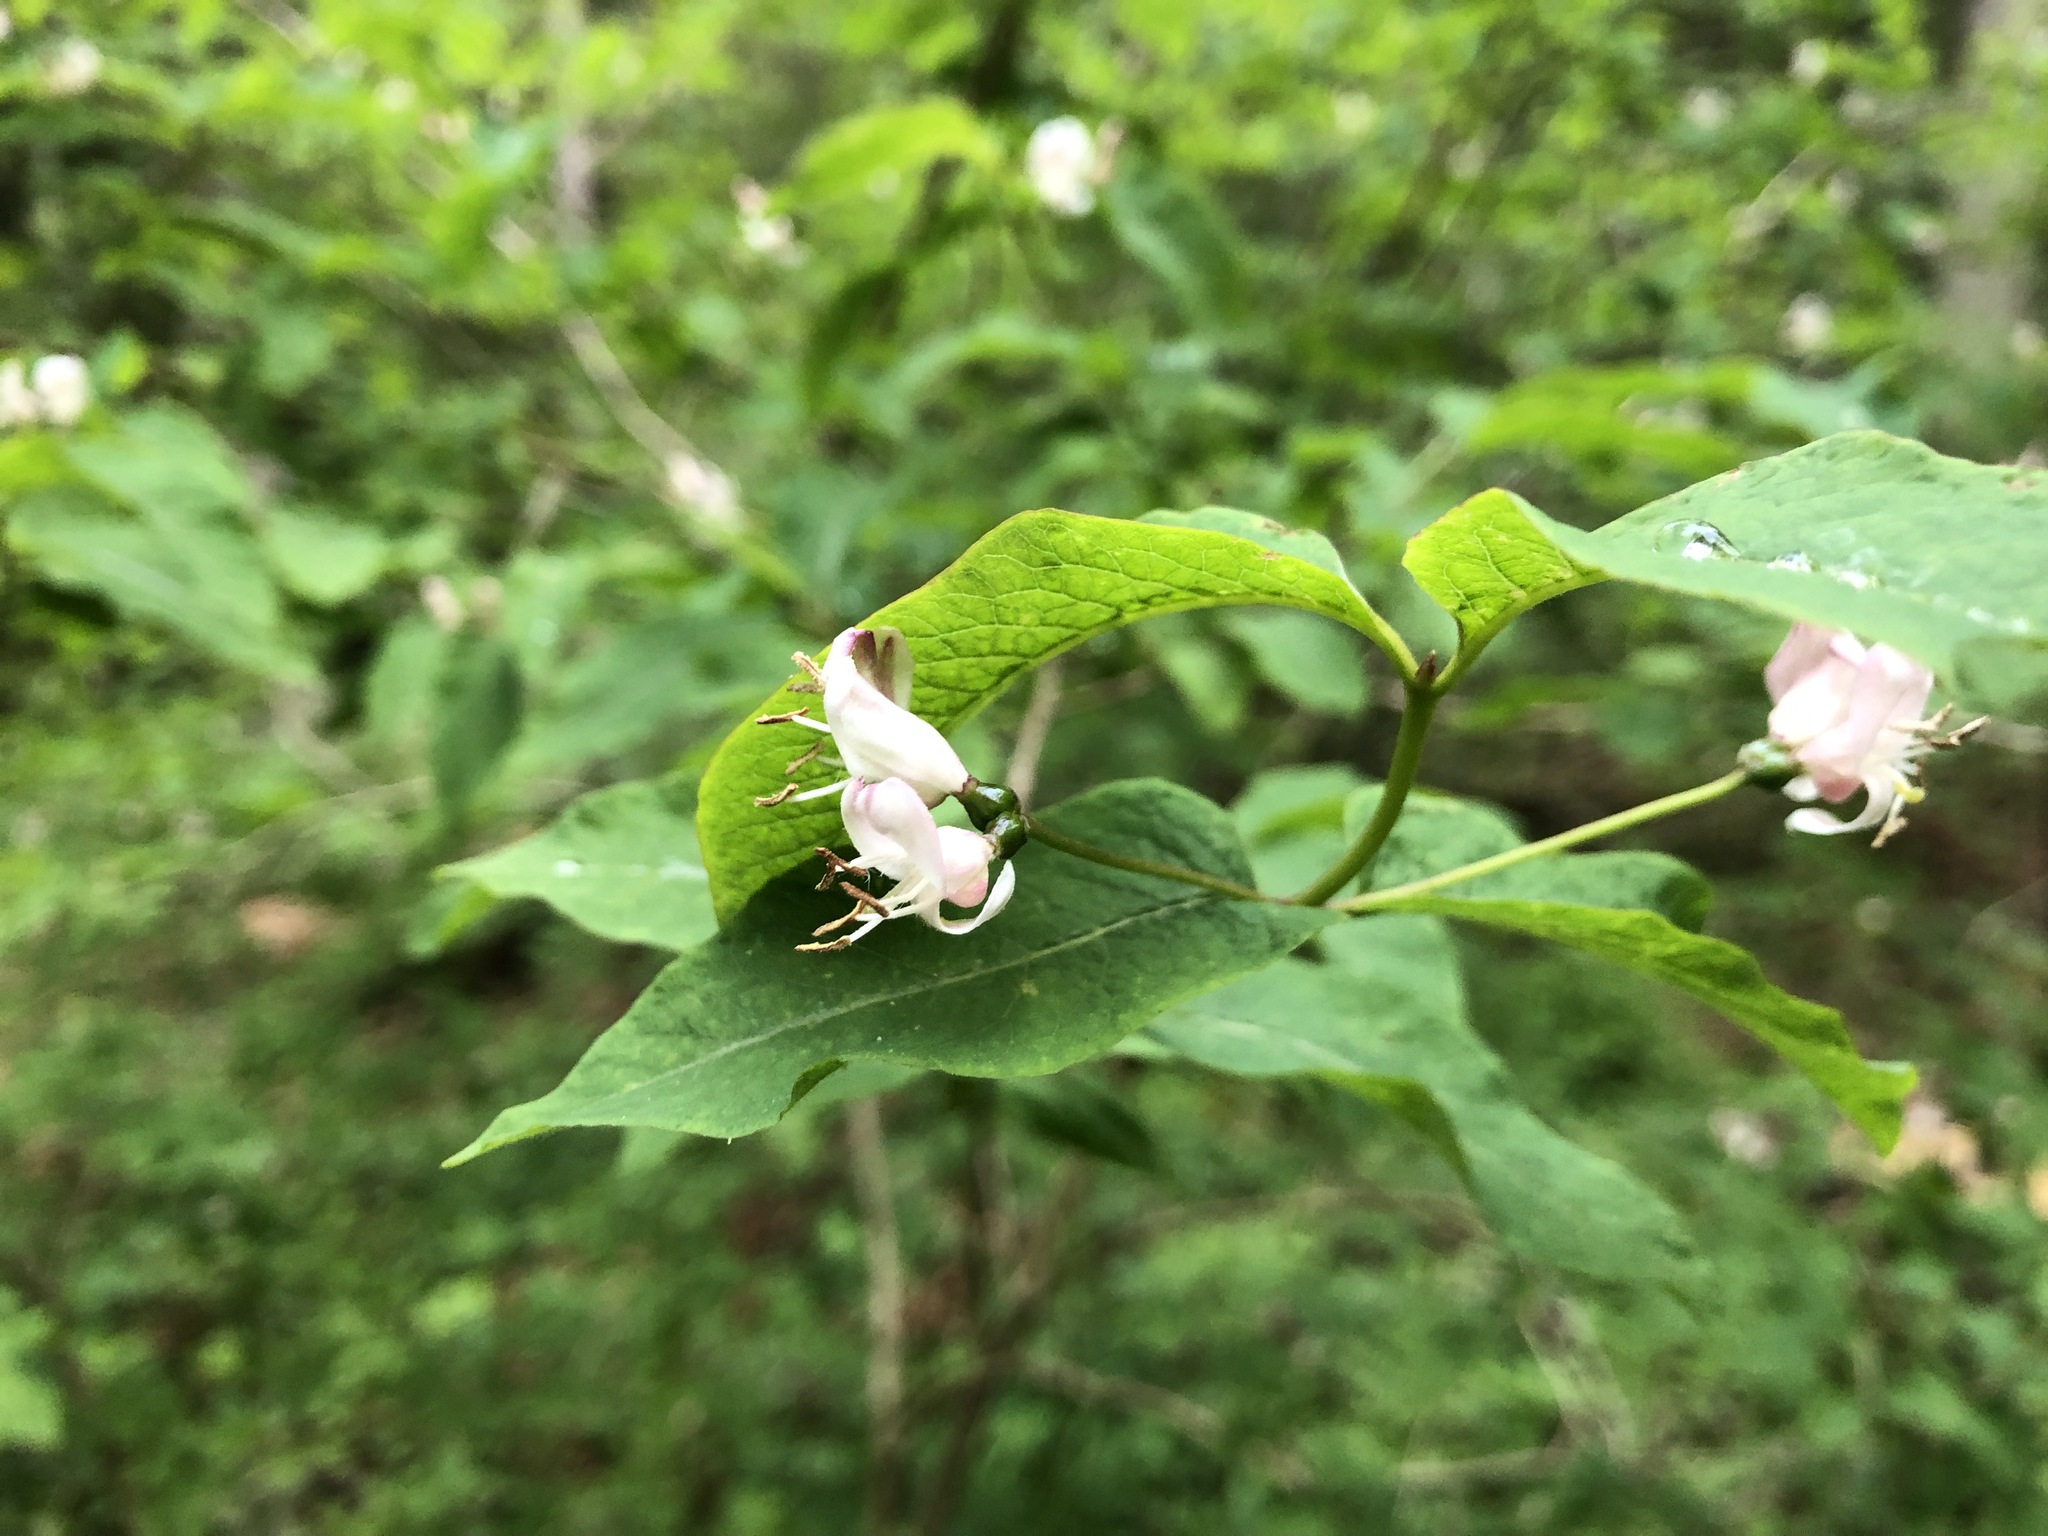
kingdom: Plantae
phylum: Tracheophyta
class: Magnoliopsida
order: Dipsacales
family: Caprifoliaceae
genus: Lonicera
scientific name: Lonicera nigra
